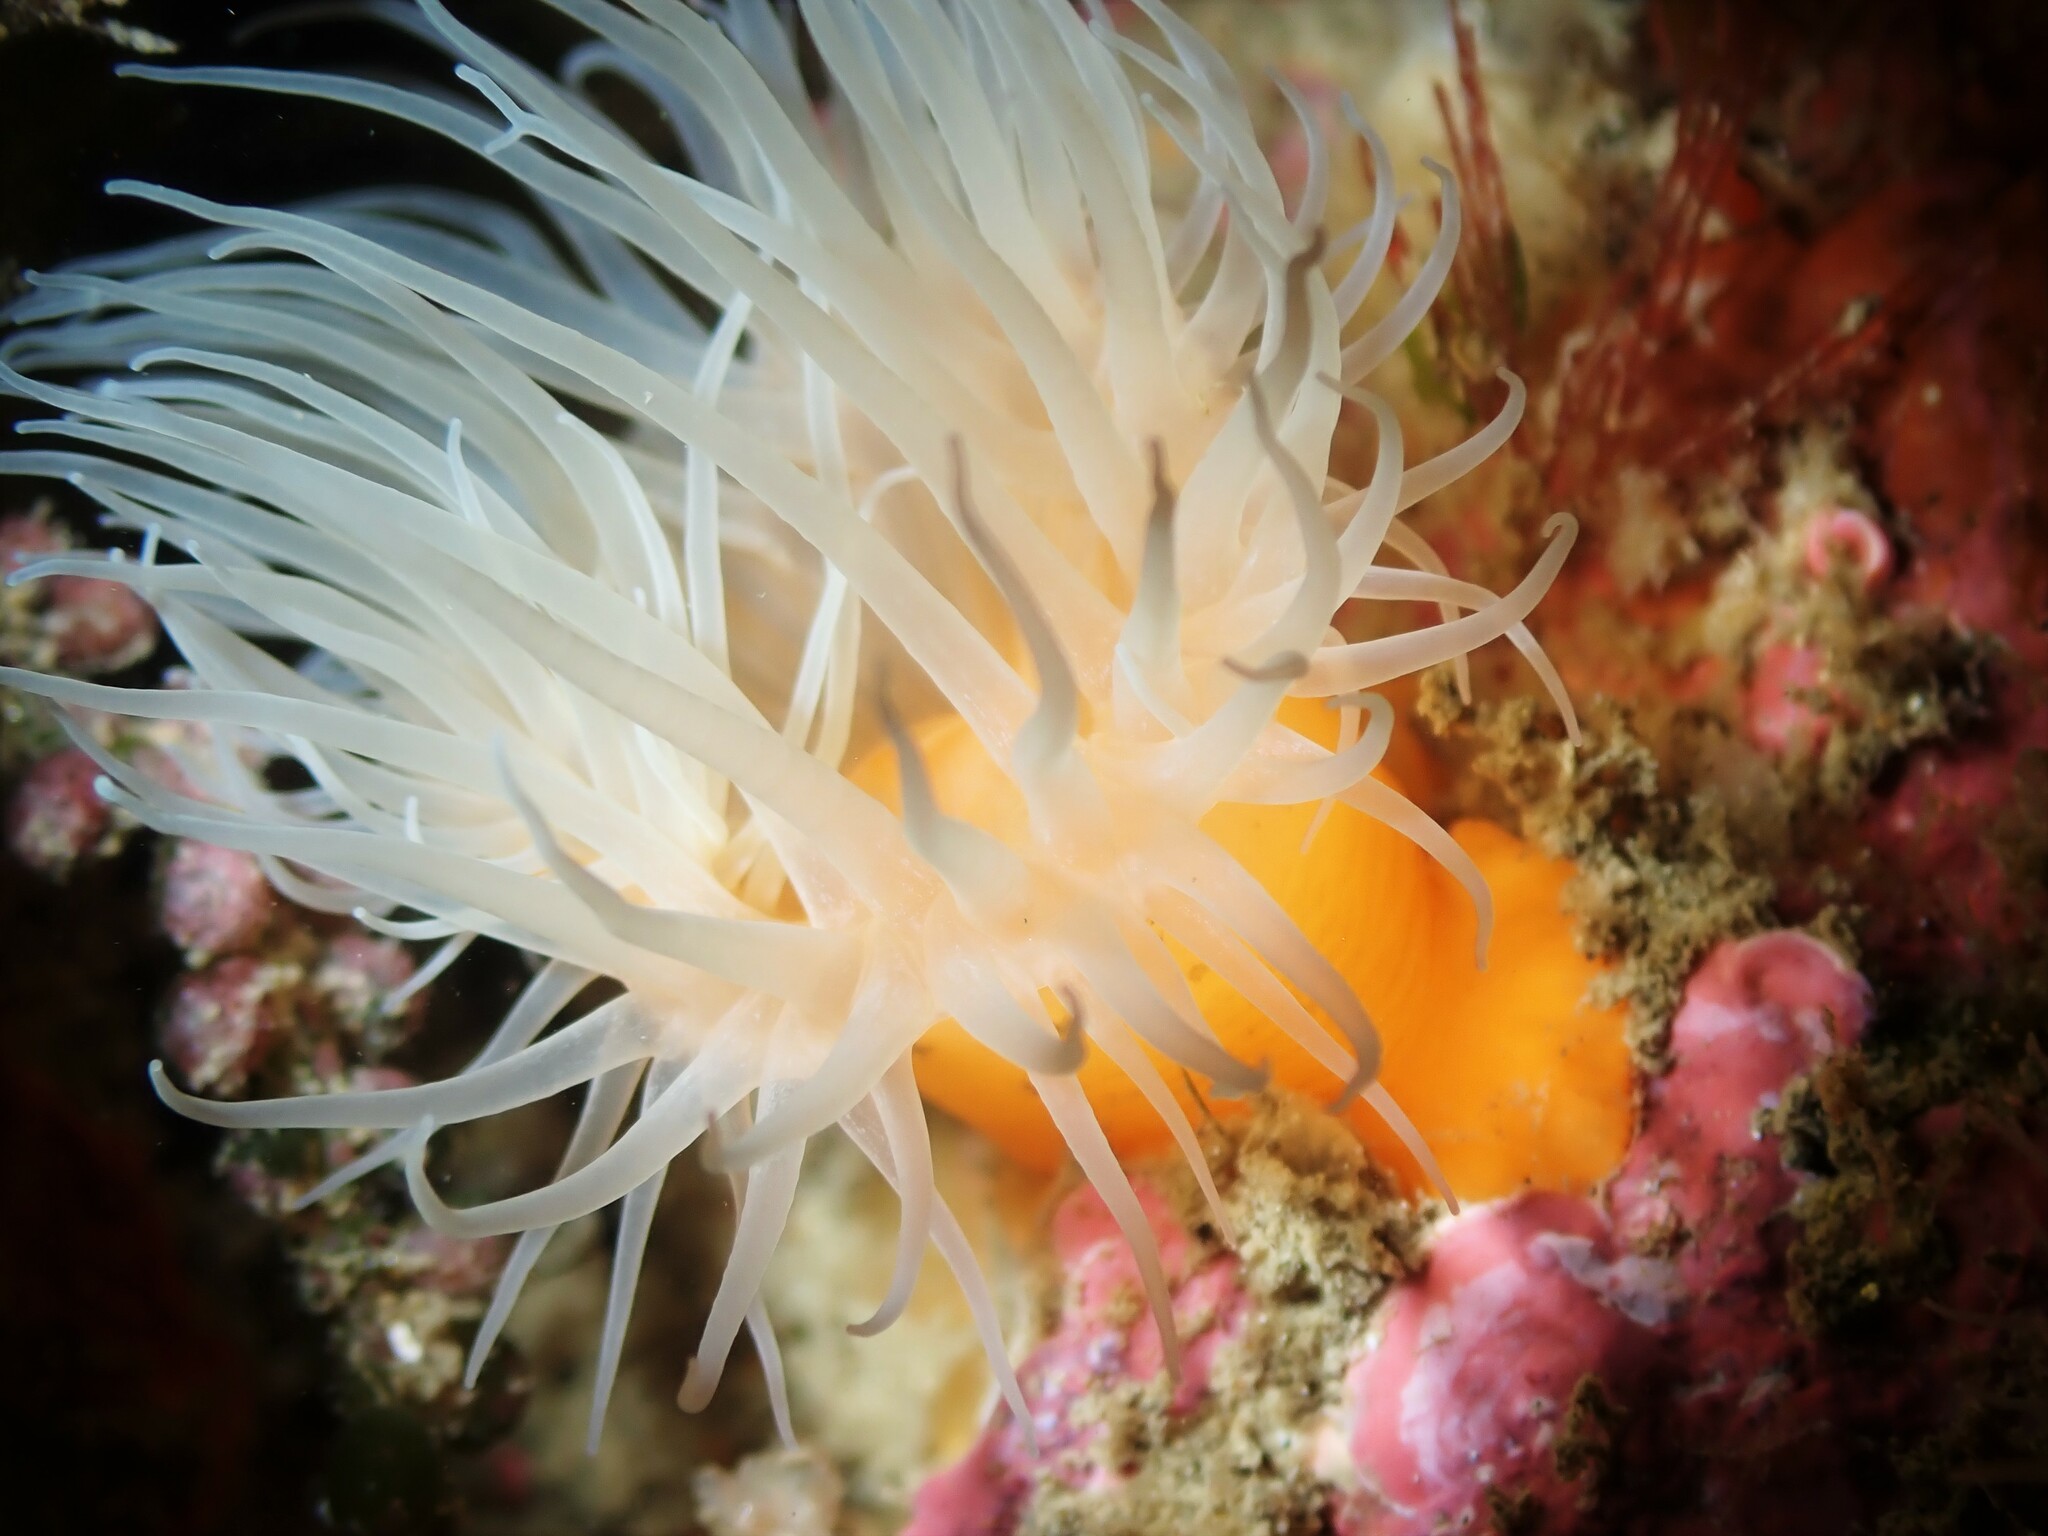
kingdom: Animalia
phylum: Cnidaria
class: Anthozoa
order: Actiniaria
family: Sagartiidae
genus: Habrosanthus
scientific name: Habrosanthus bathamae
